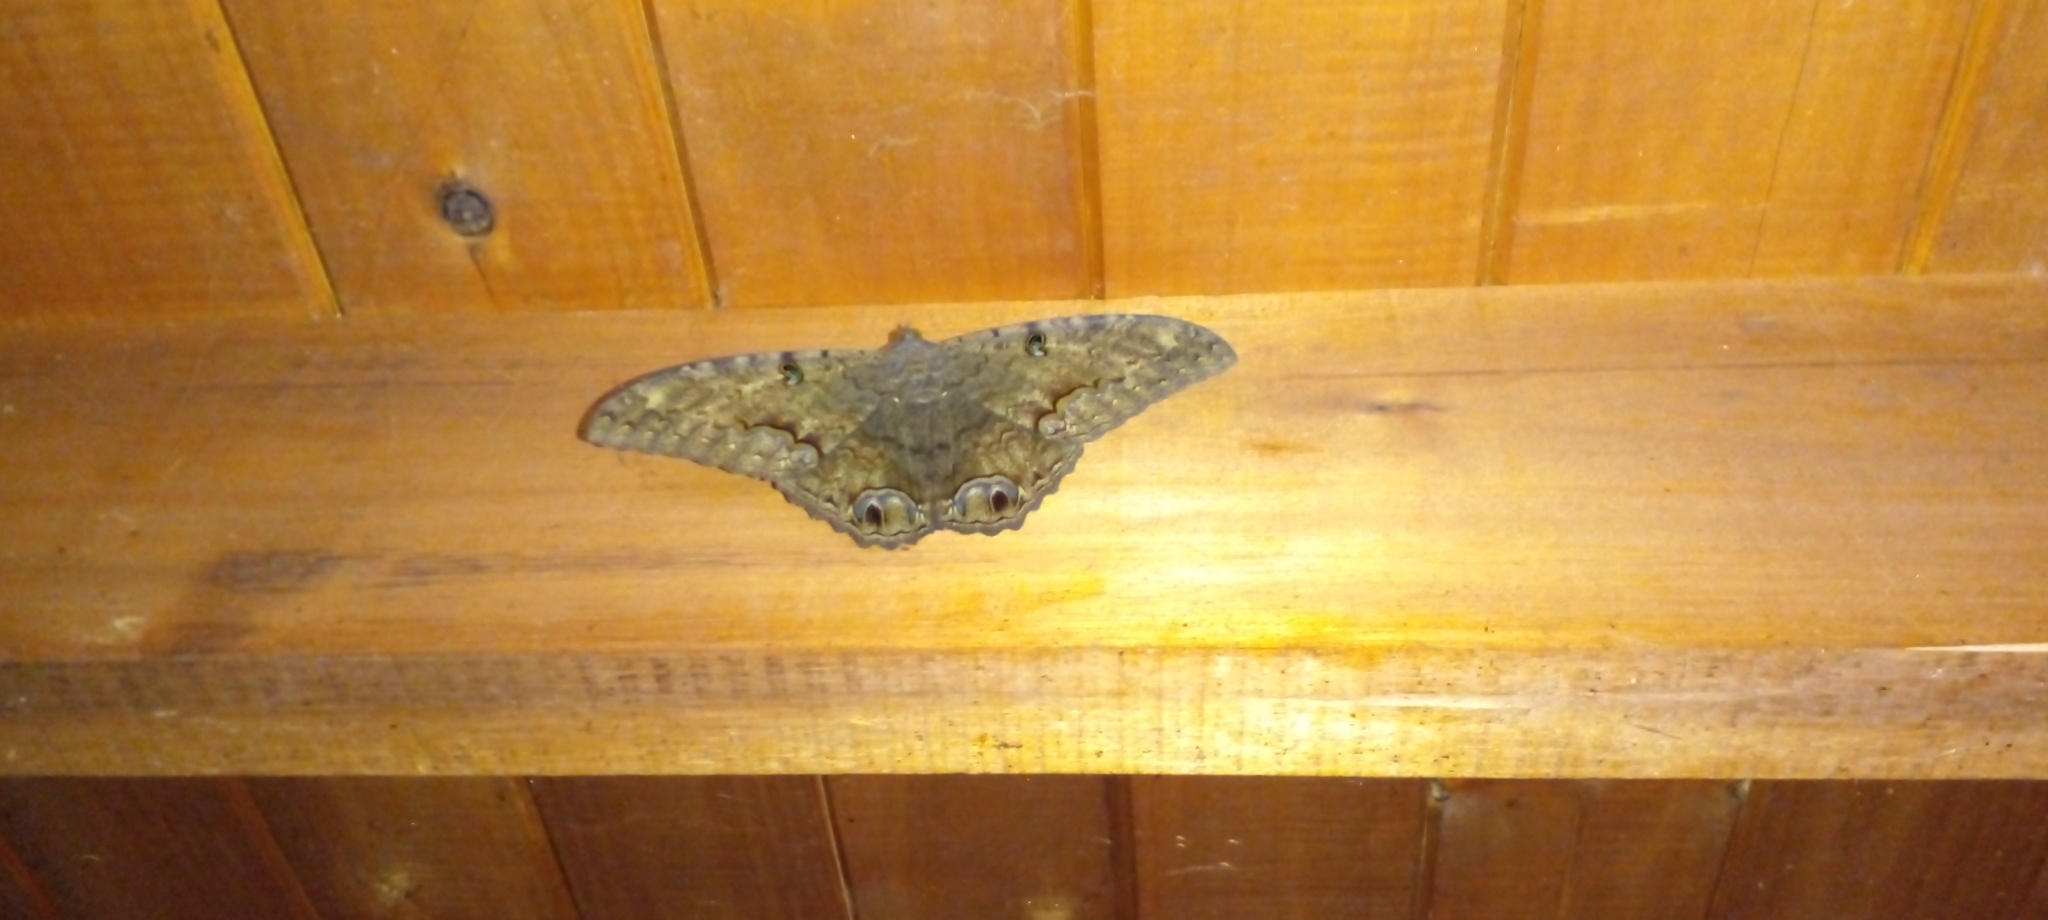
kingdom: Animalia
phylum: Arthropoda
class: Insecta
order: Lepidoptera
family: Erebidae
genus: Ascalapha
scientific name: Ascalapha odorata
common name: Black witch
